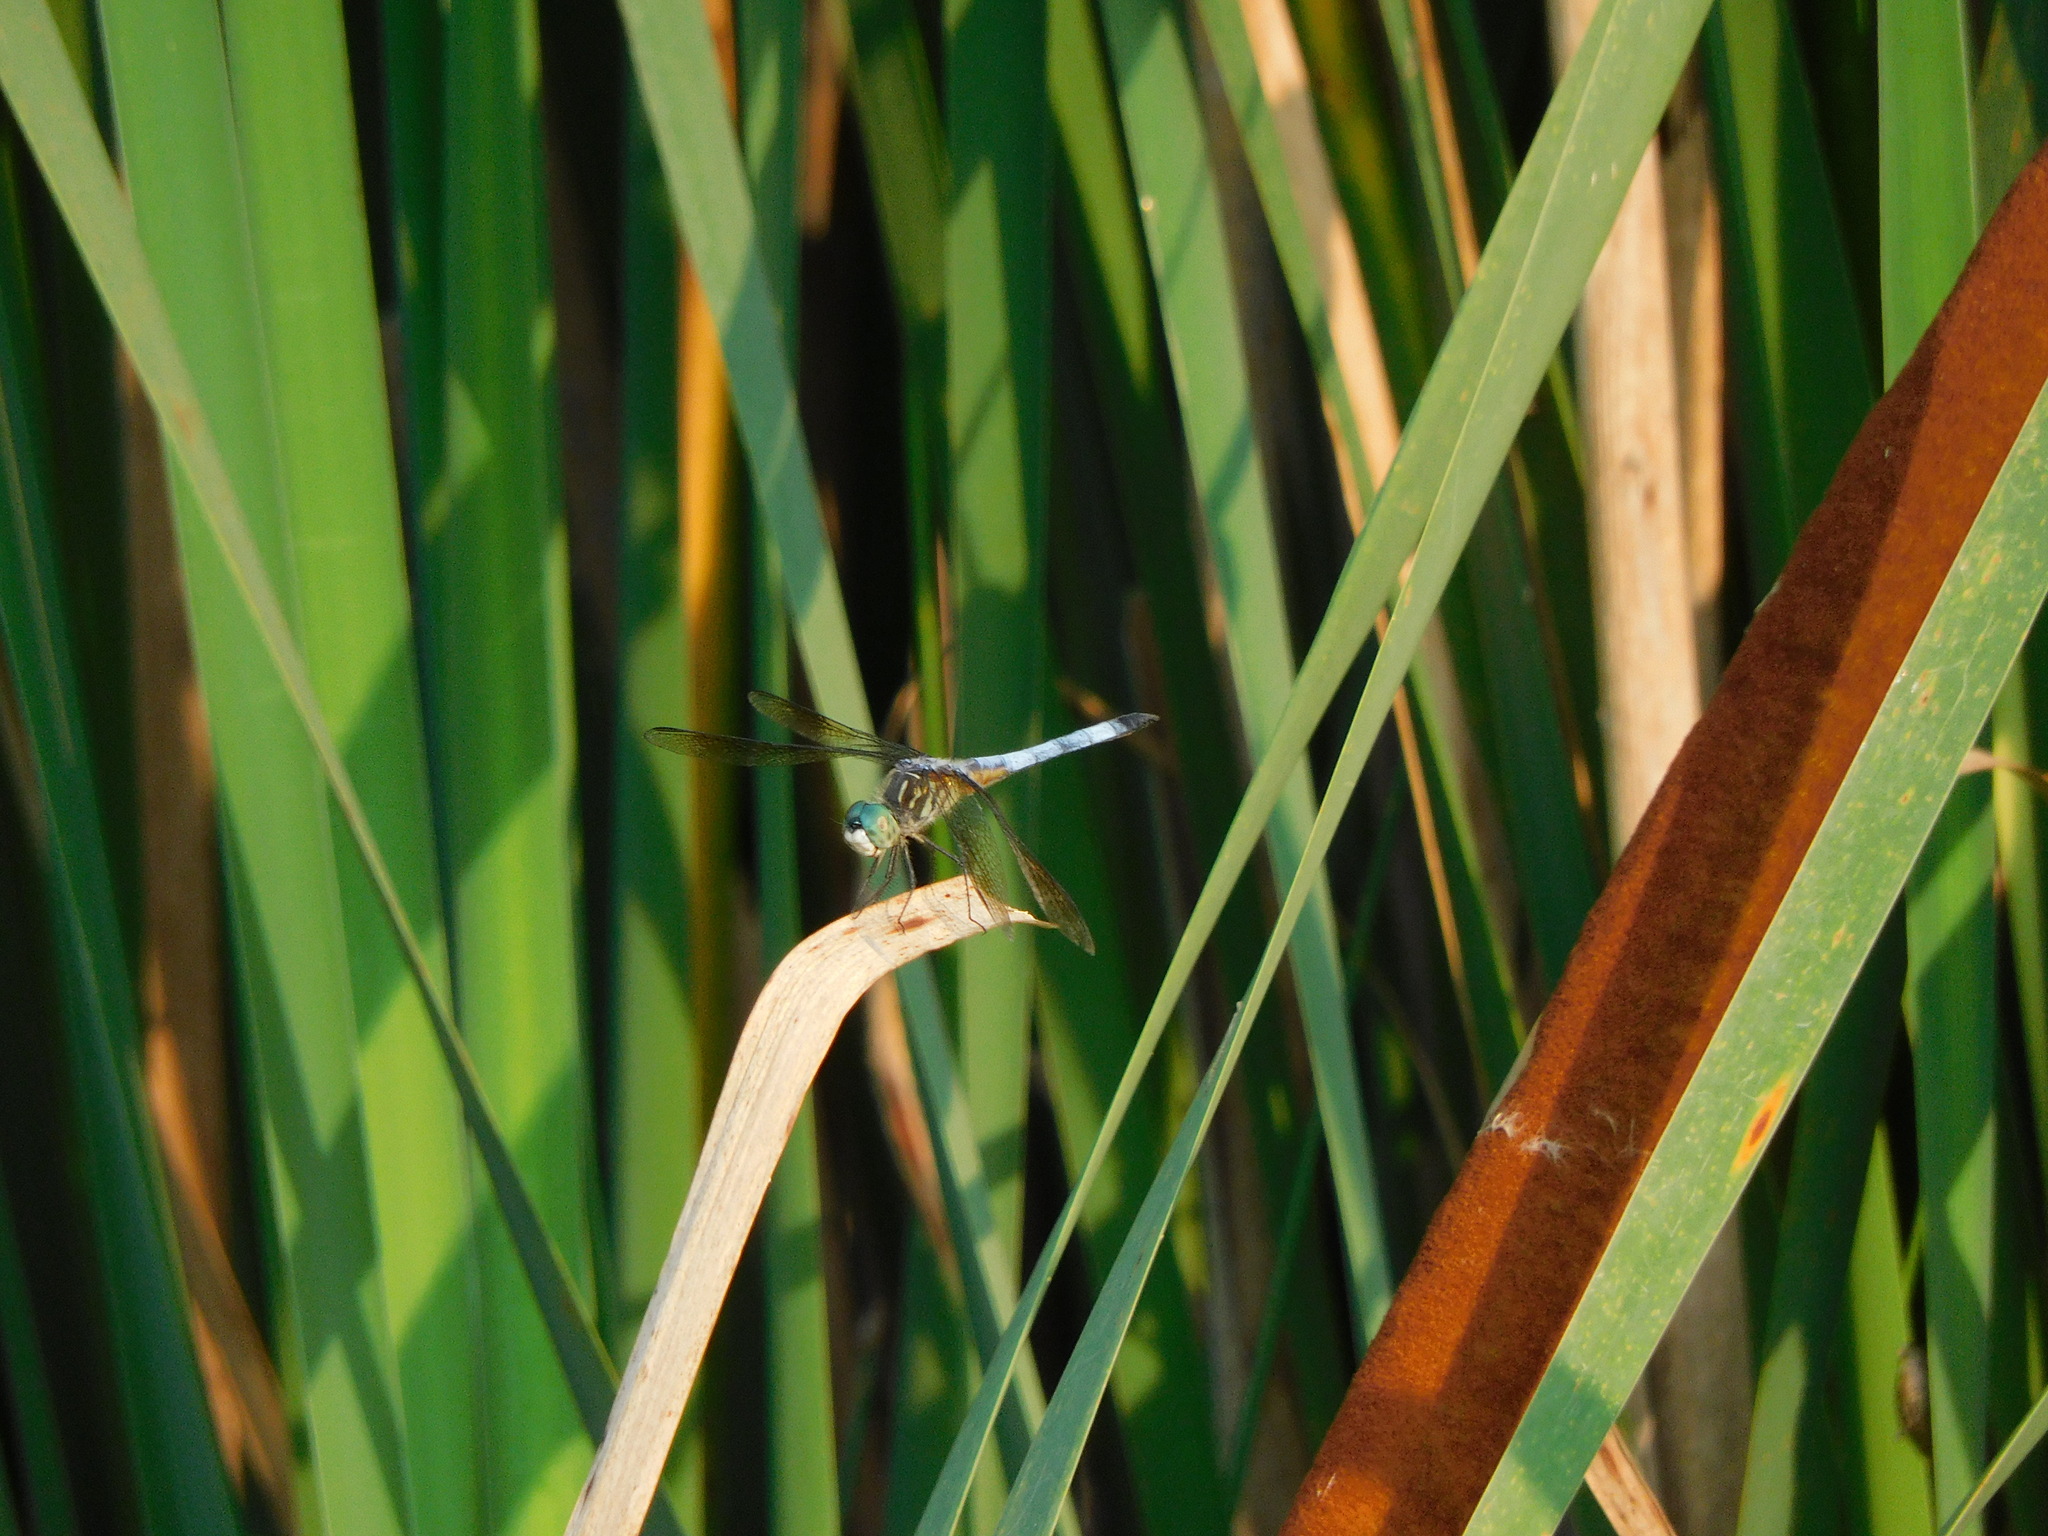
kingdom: Animalia
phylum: Arthropoda
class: Insecta
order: Odonata
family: Libellulidae
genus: Pachydiplax
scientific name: Pachydiplax longipennis
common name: Blue dasher
